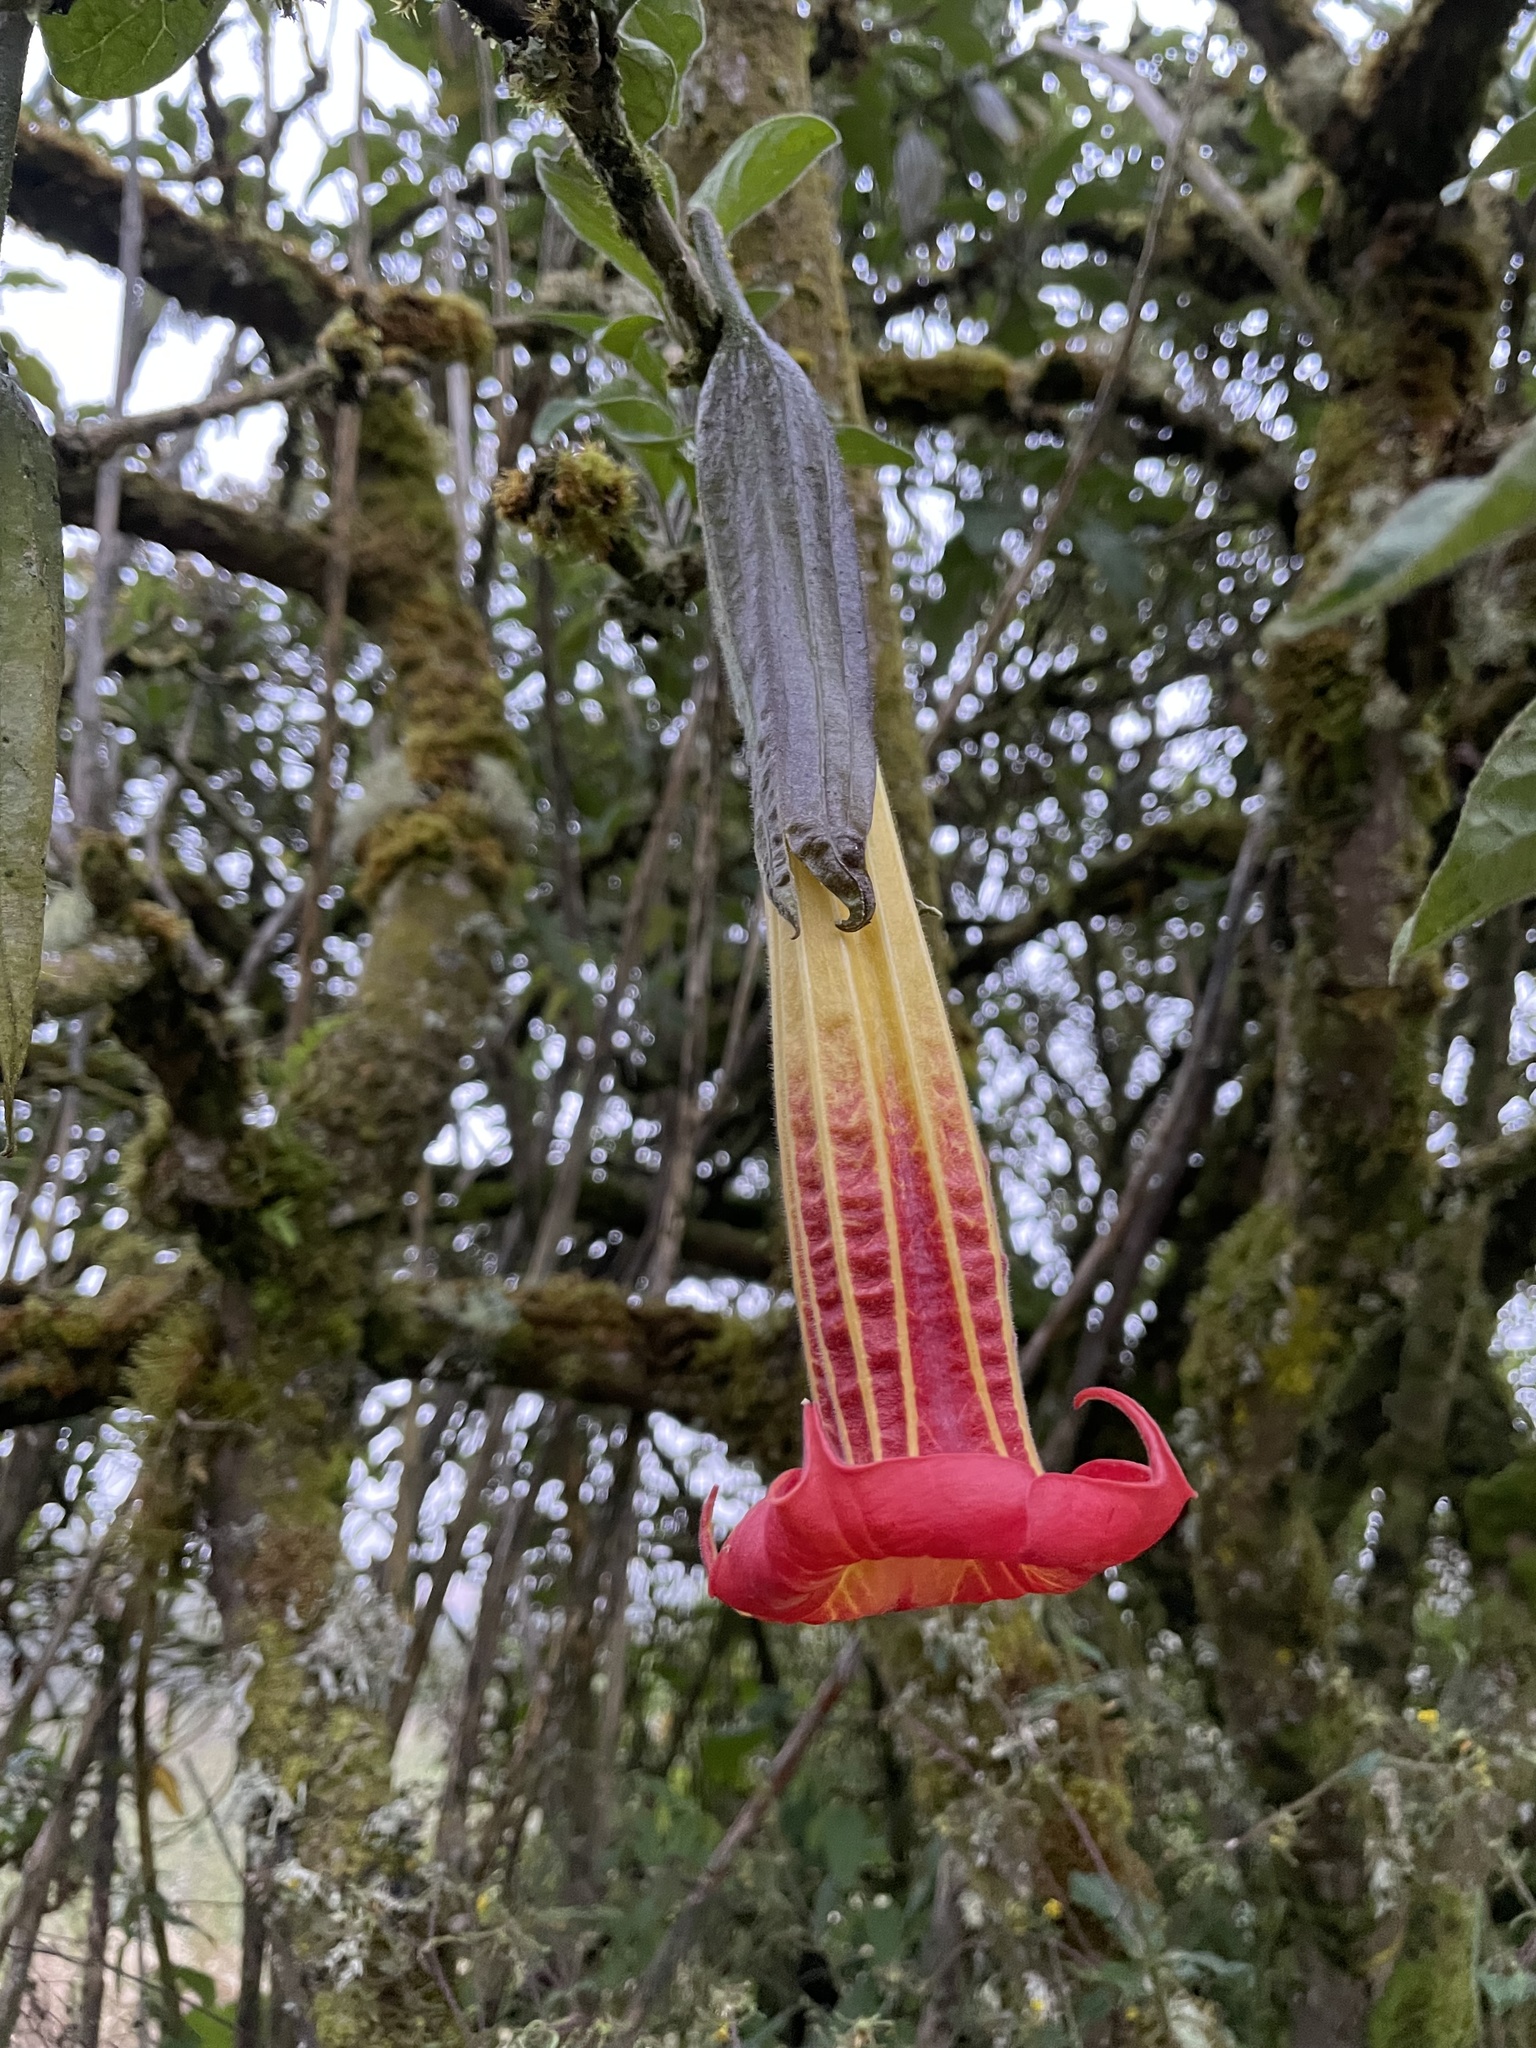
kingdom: Plantae
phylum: Tracheophyta
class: Magnoliopsida
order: Solanales
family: Solanaceae
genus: Brugmansia
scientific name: Brugmansia sanguinea
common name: Red floripontio
